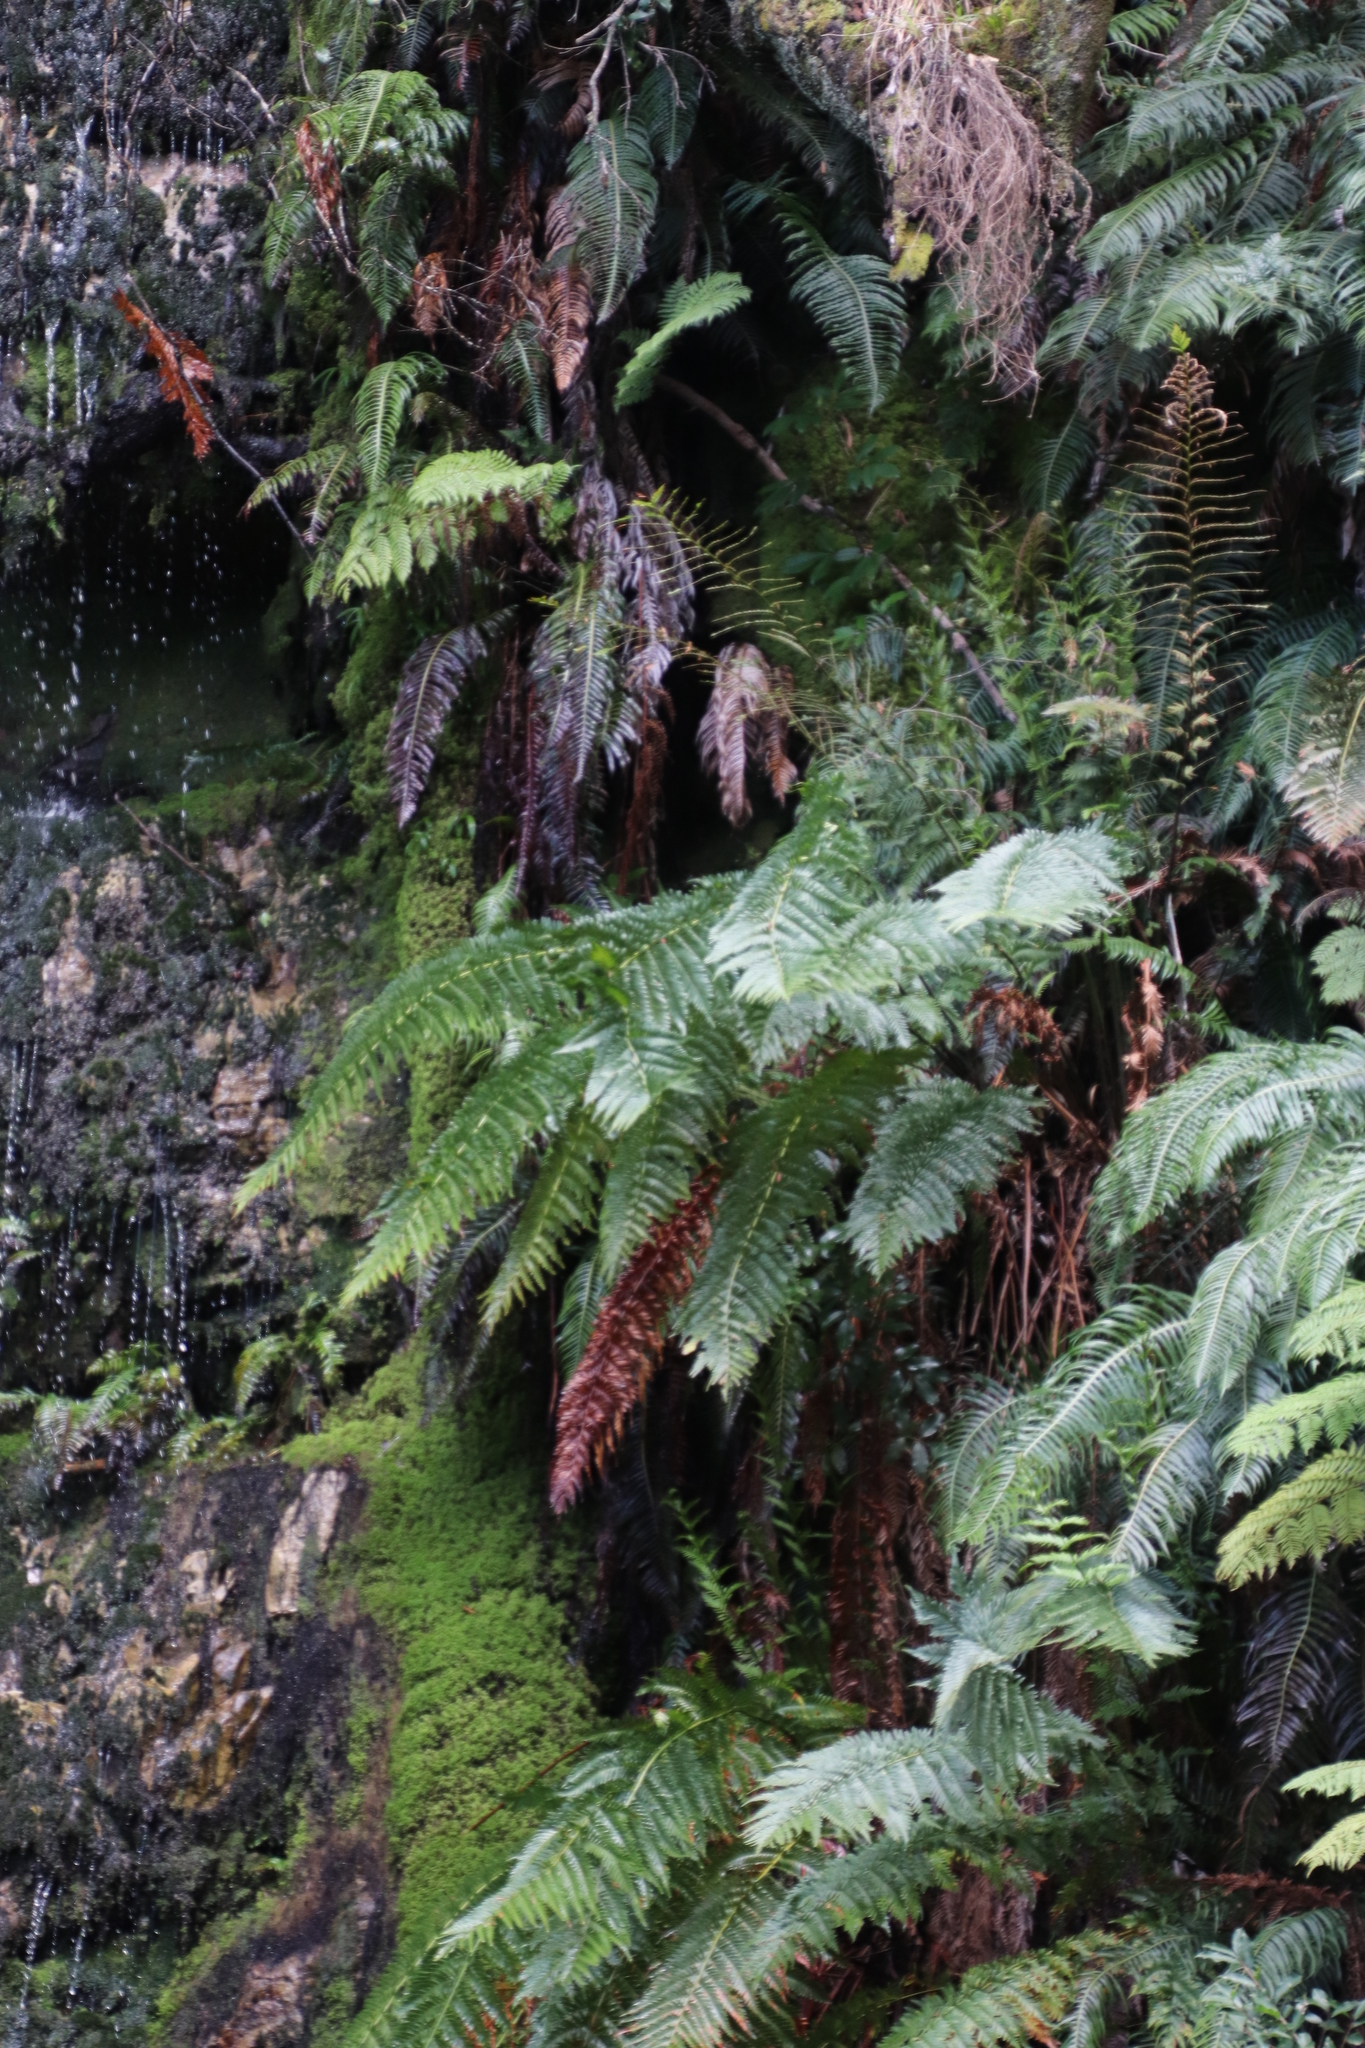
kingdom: Plantae
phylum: Tracheophyta
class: Polypodiopsida
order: Osmundales
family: Osmundaceae
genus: Todea
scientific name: Todea barbara
